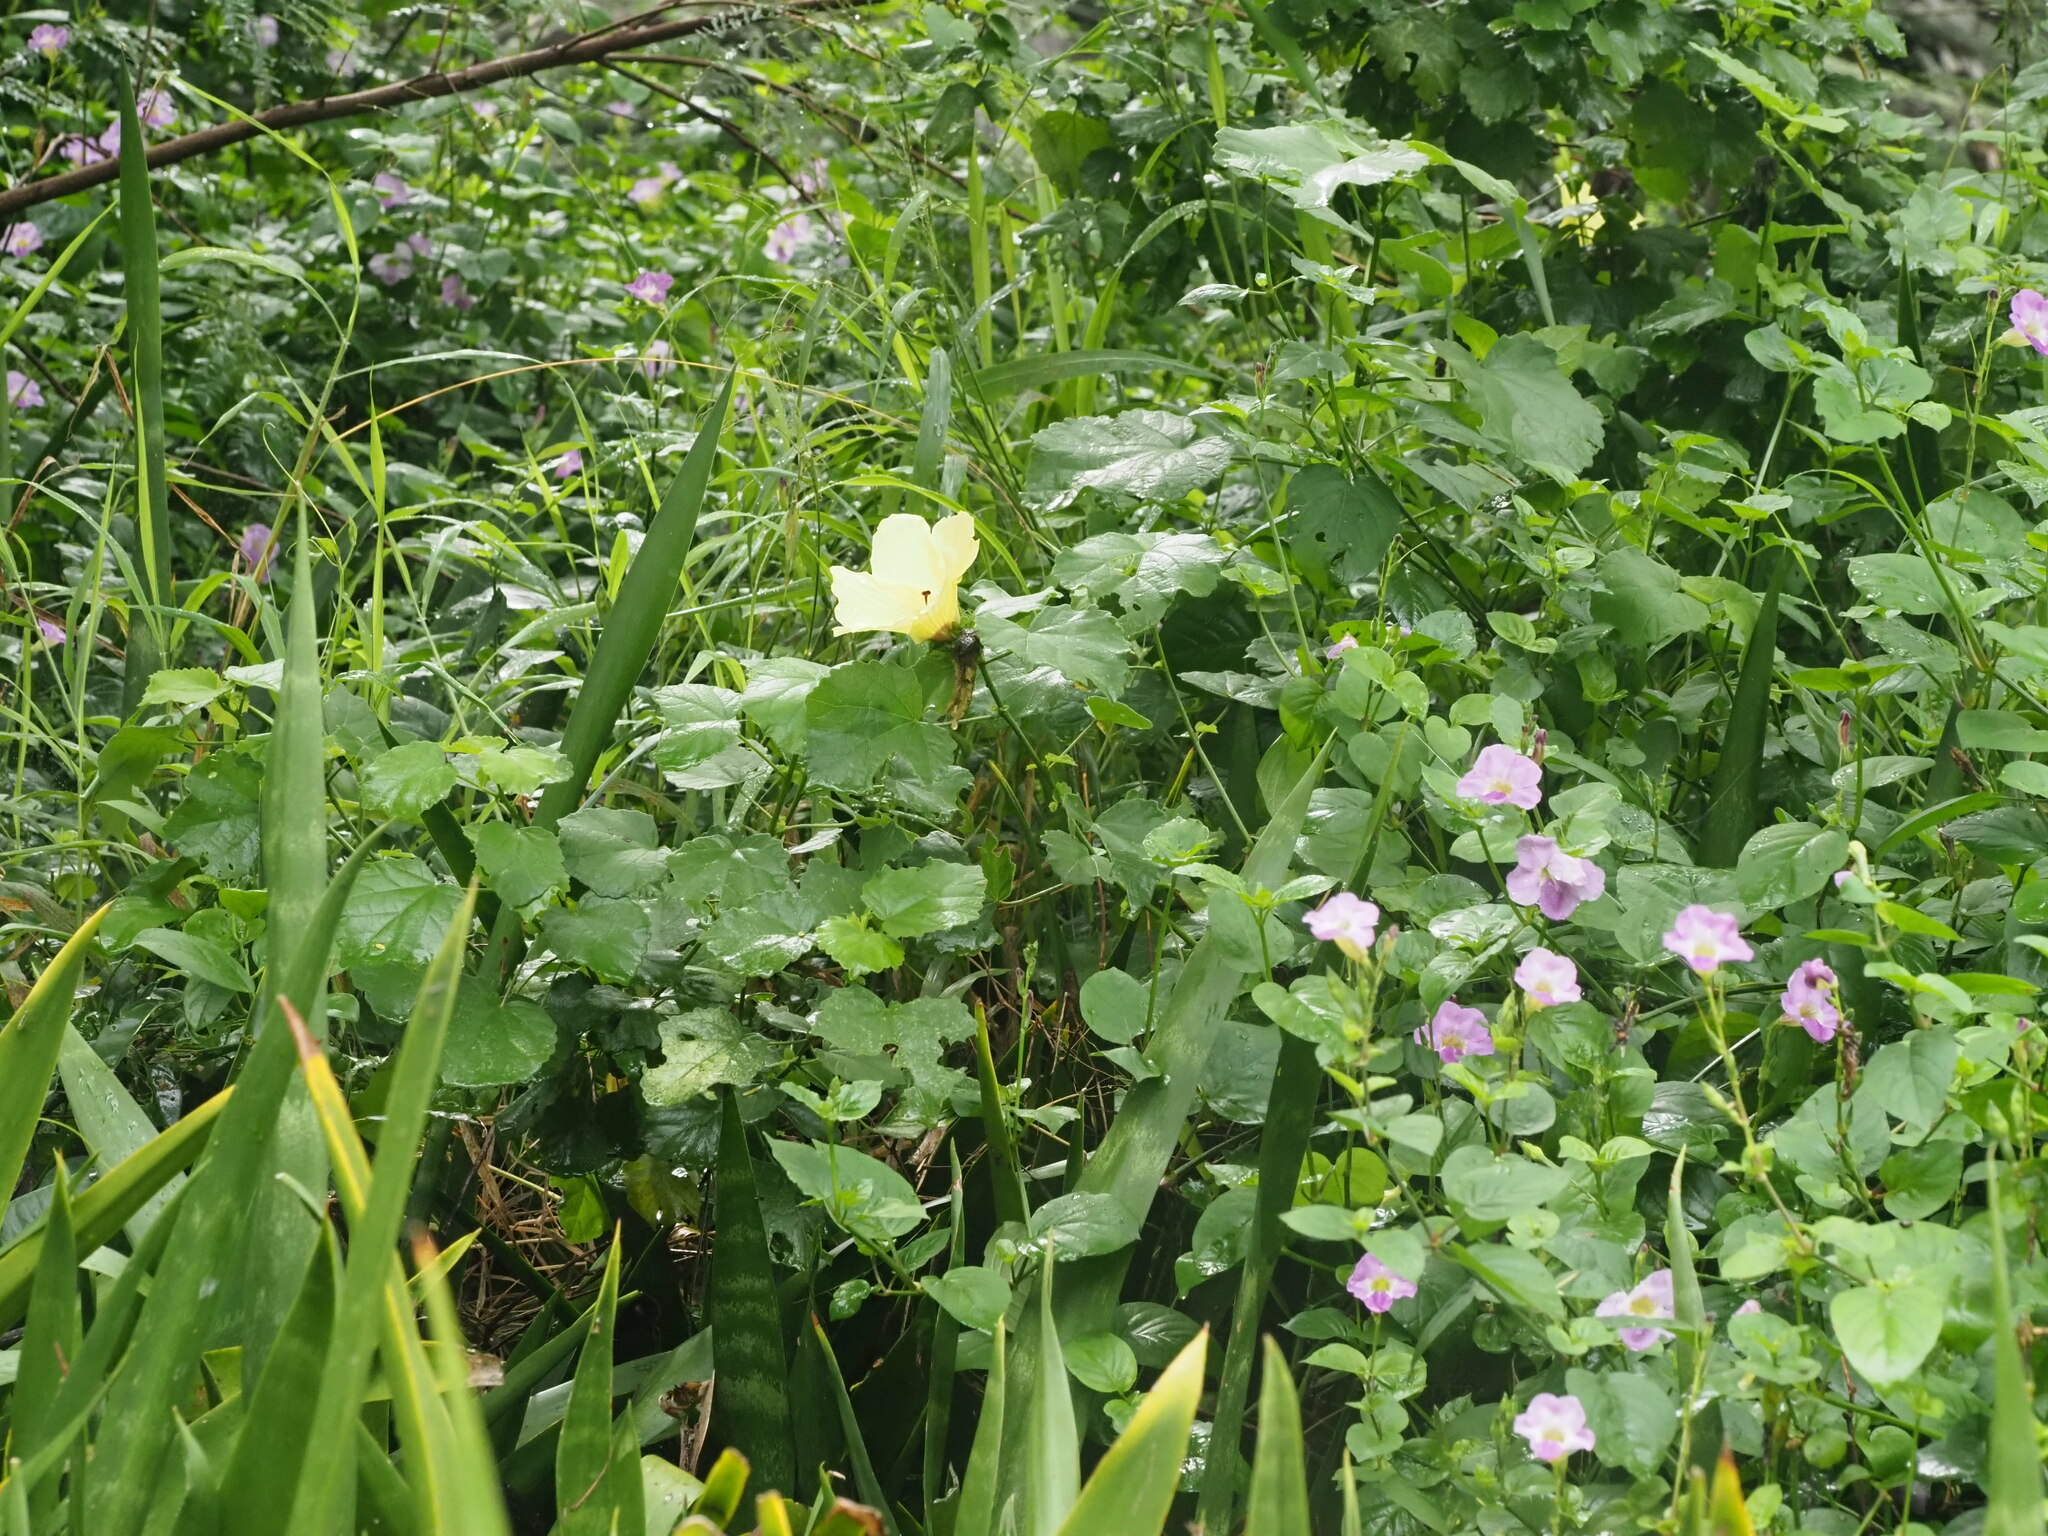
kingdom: Plantae
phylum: Tracheophyta
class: Magnoliopsida
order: Malvales
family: Malvaceae
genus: Hibiscus
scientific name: Hibiscus calyphyllus
